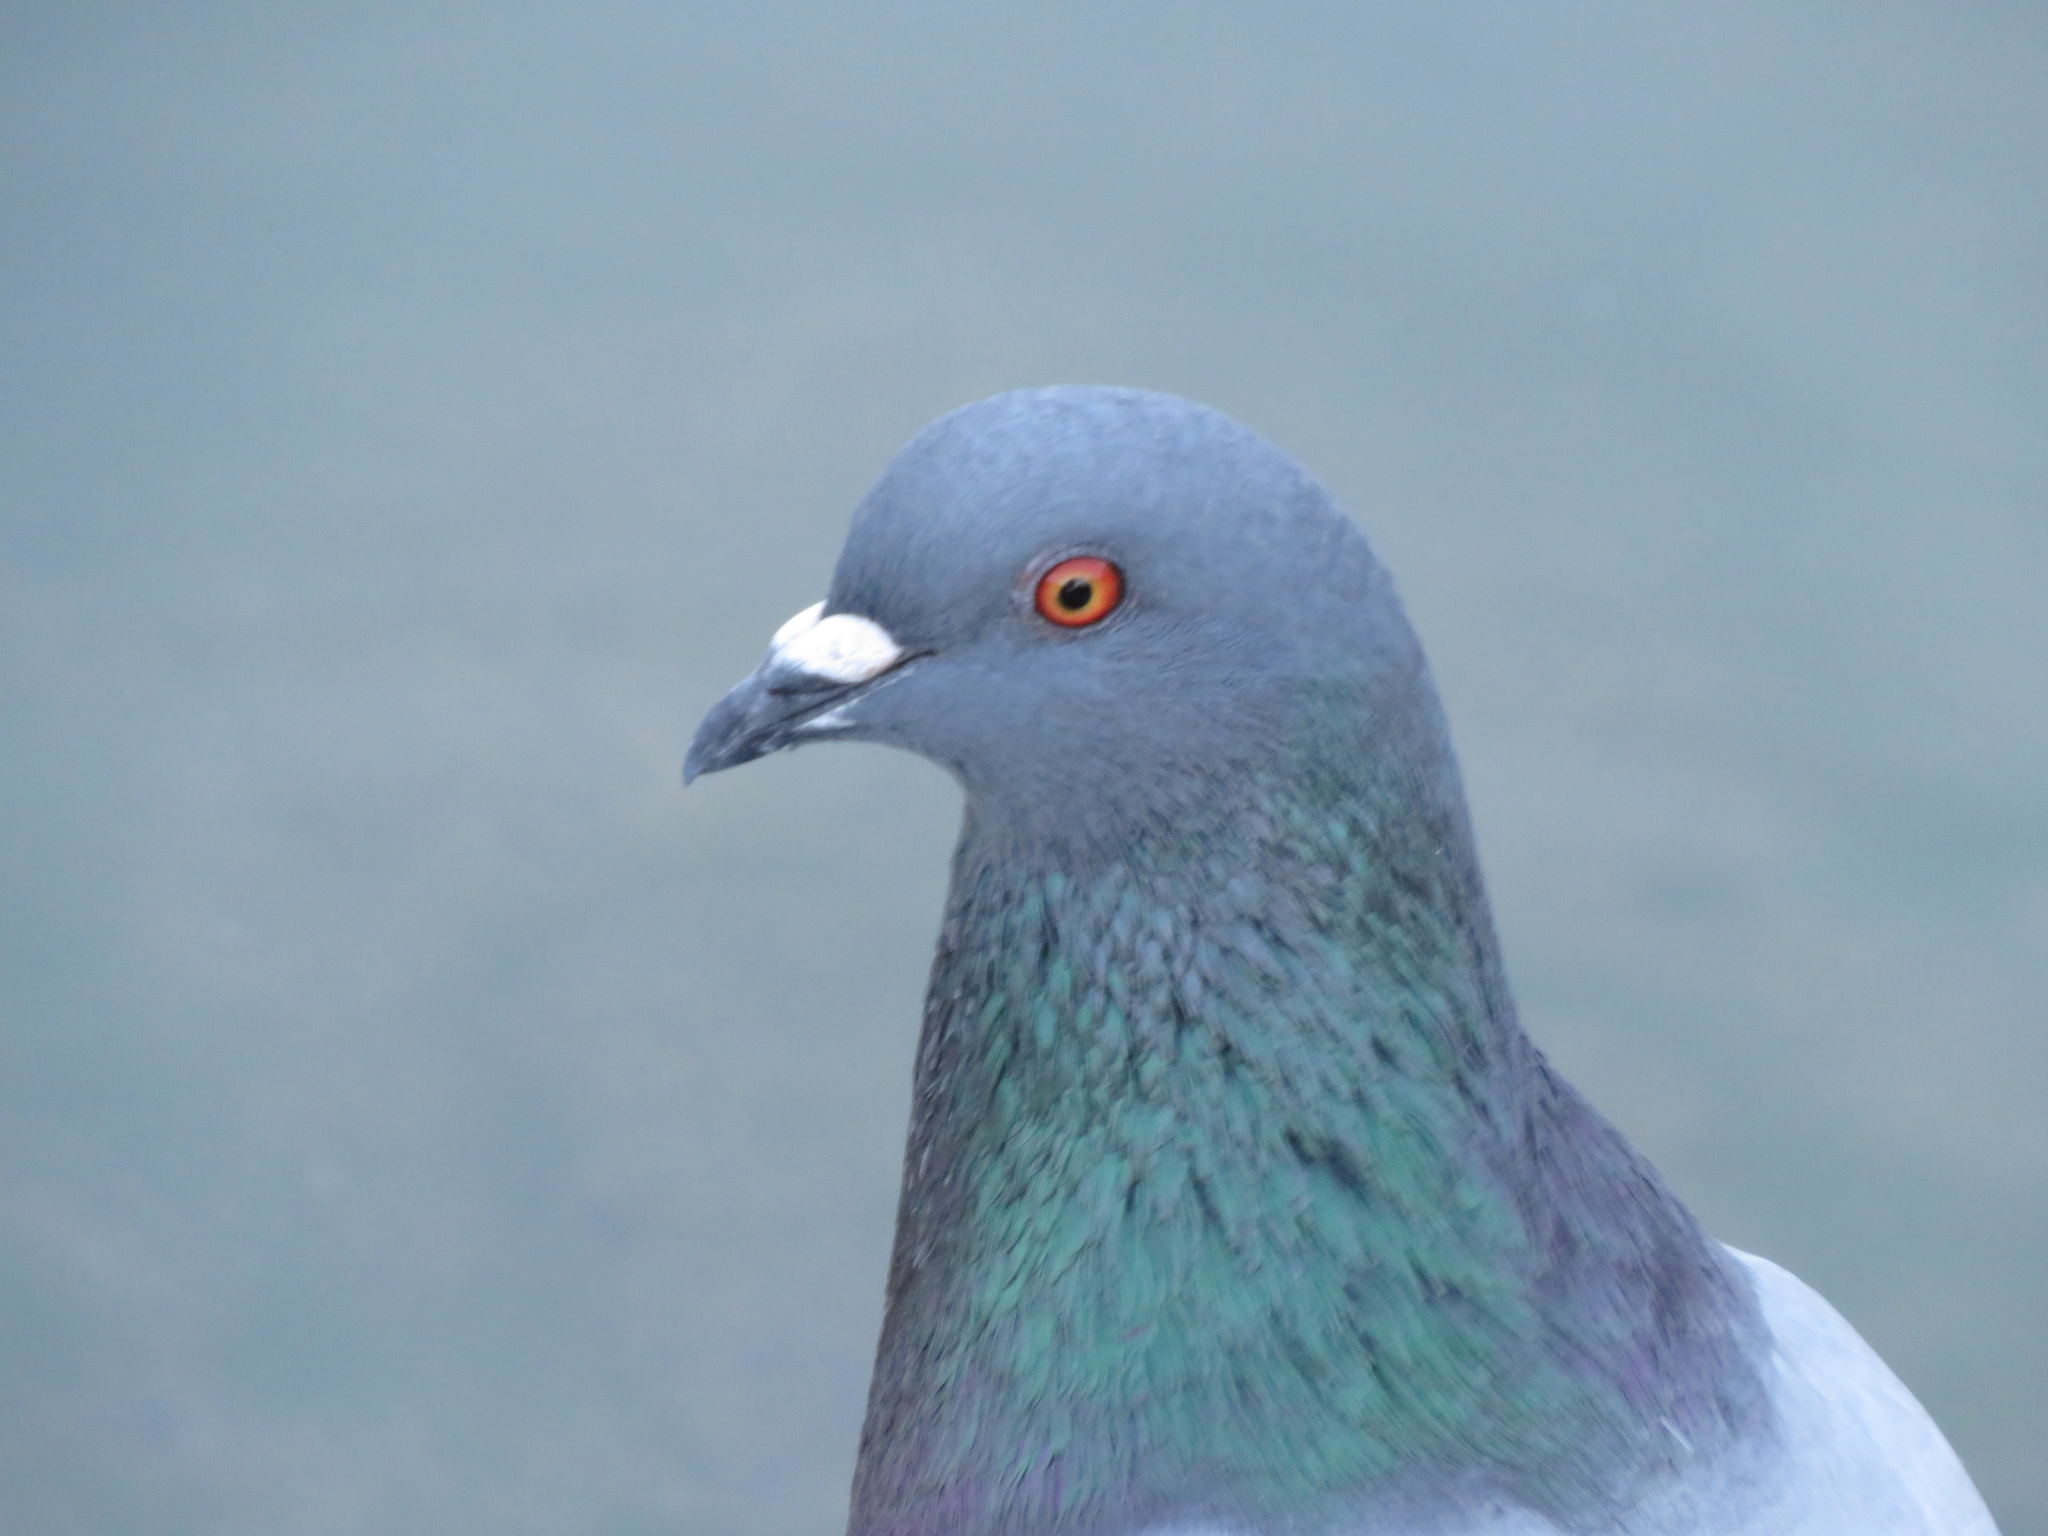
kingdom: Animalia
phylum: Chordata
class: Aves
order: Columbiformes
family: Columbidae
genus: Columba
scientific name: Columba livia
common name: Rock pigeon
